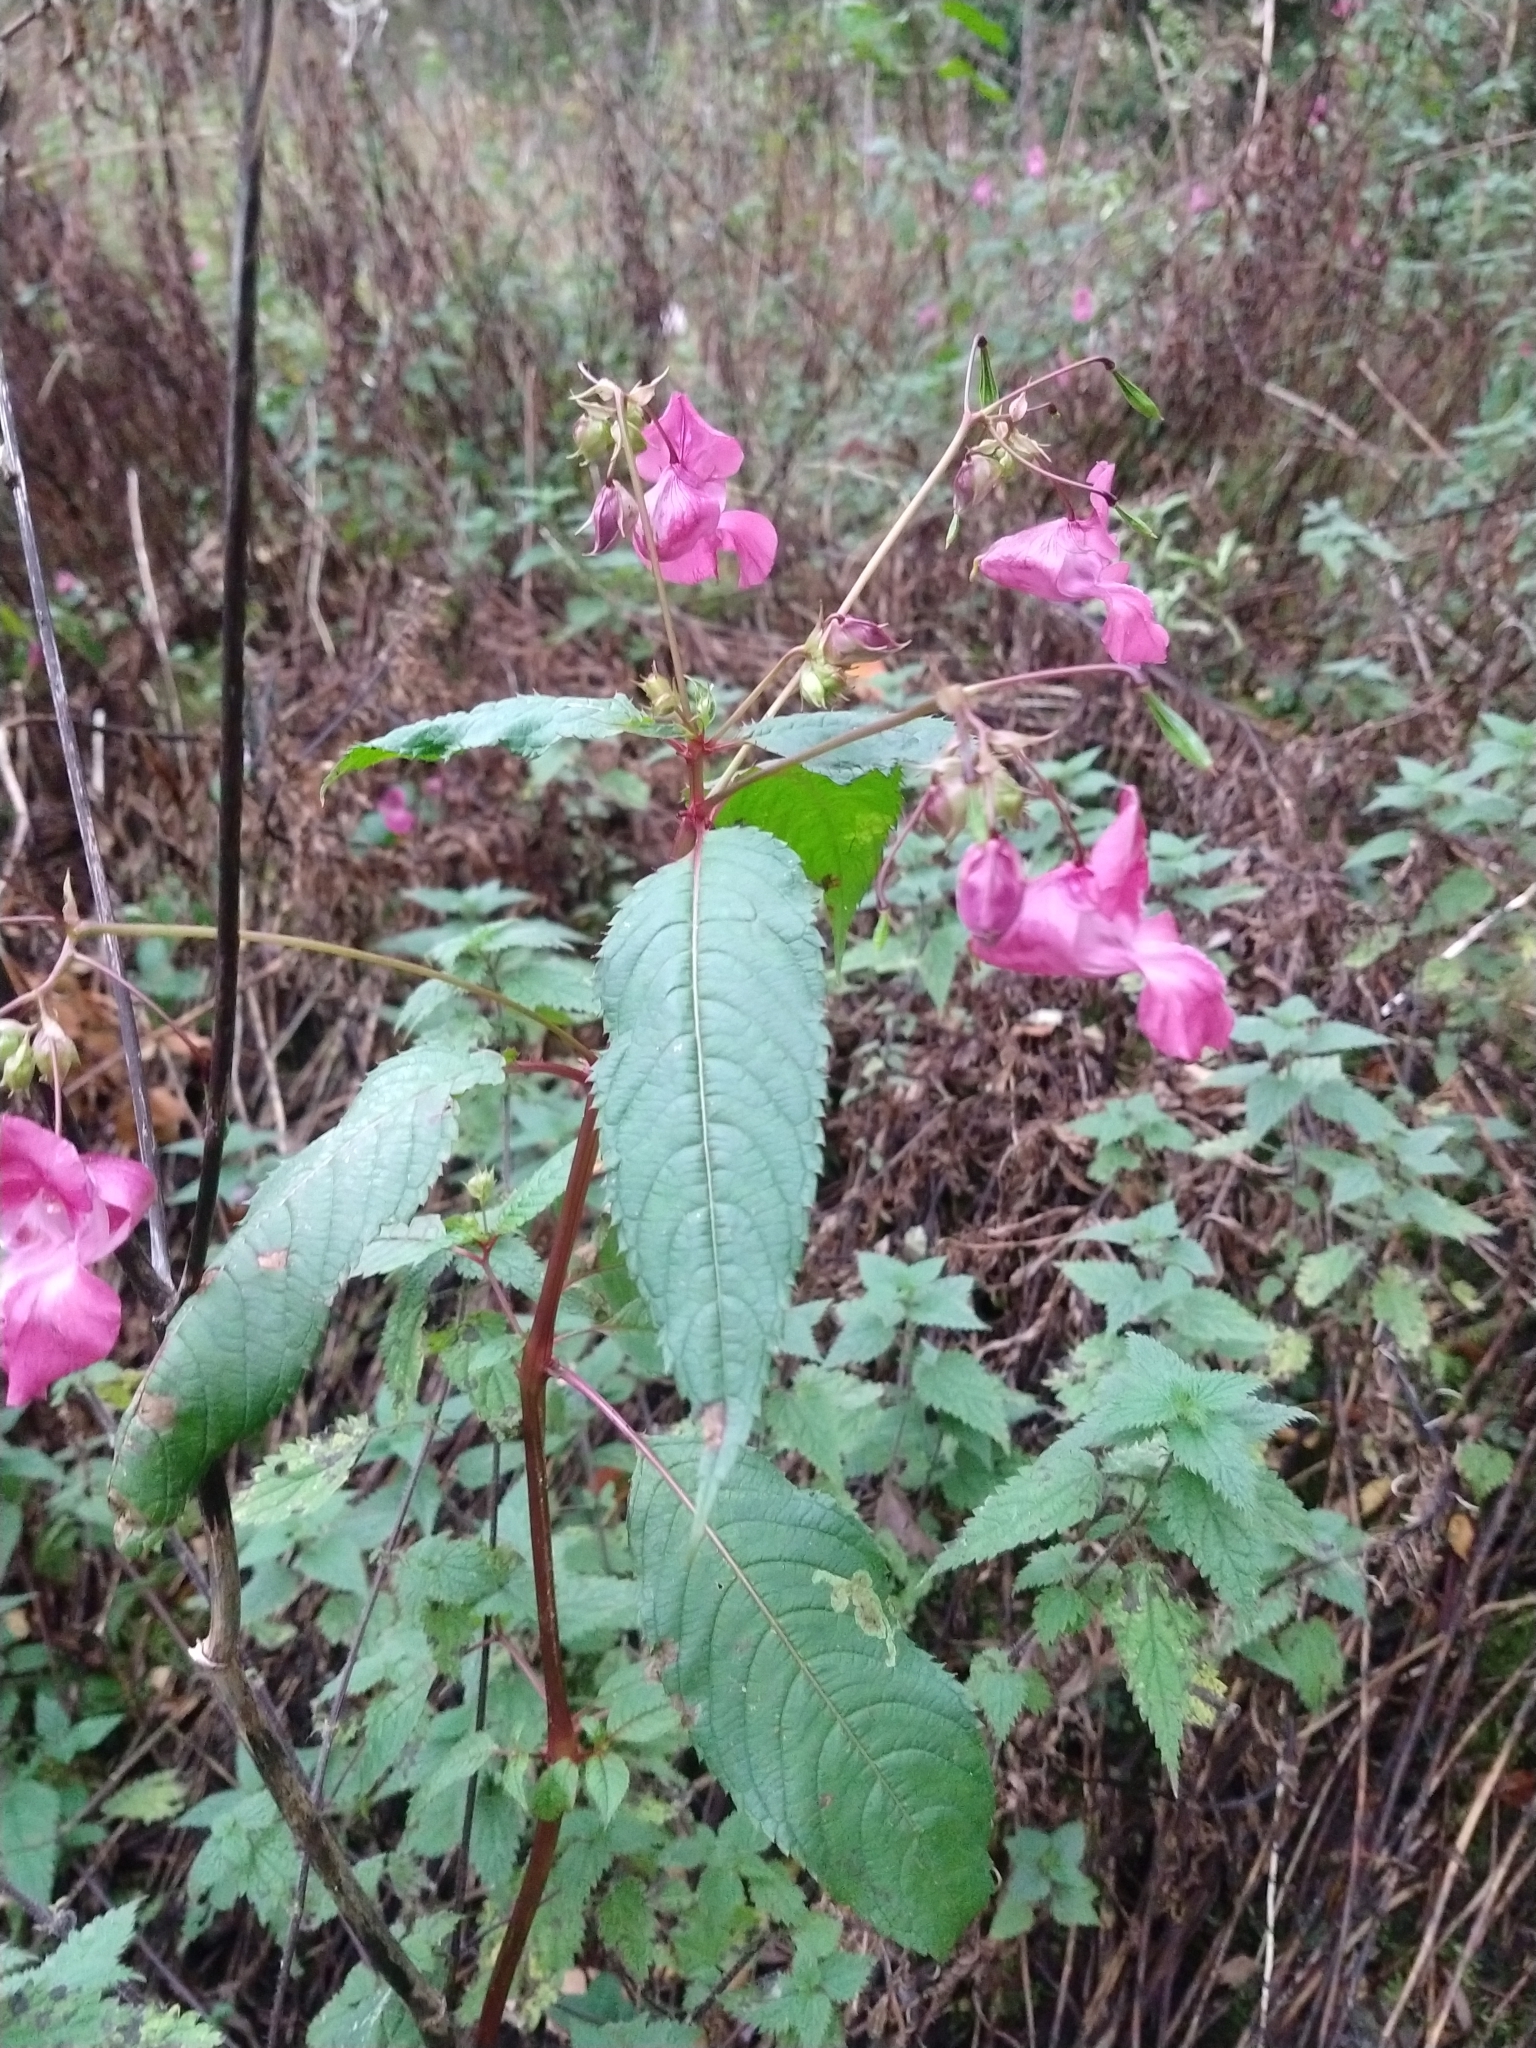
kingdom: Plantae
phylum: Tracheophyta
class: Magnoliopsida
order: Ericales
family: Balsaminaceae
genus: Impatiens
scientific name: Impatiens glandulifera
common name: Himalayan balsam
